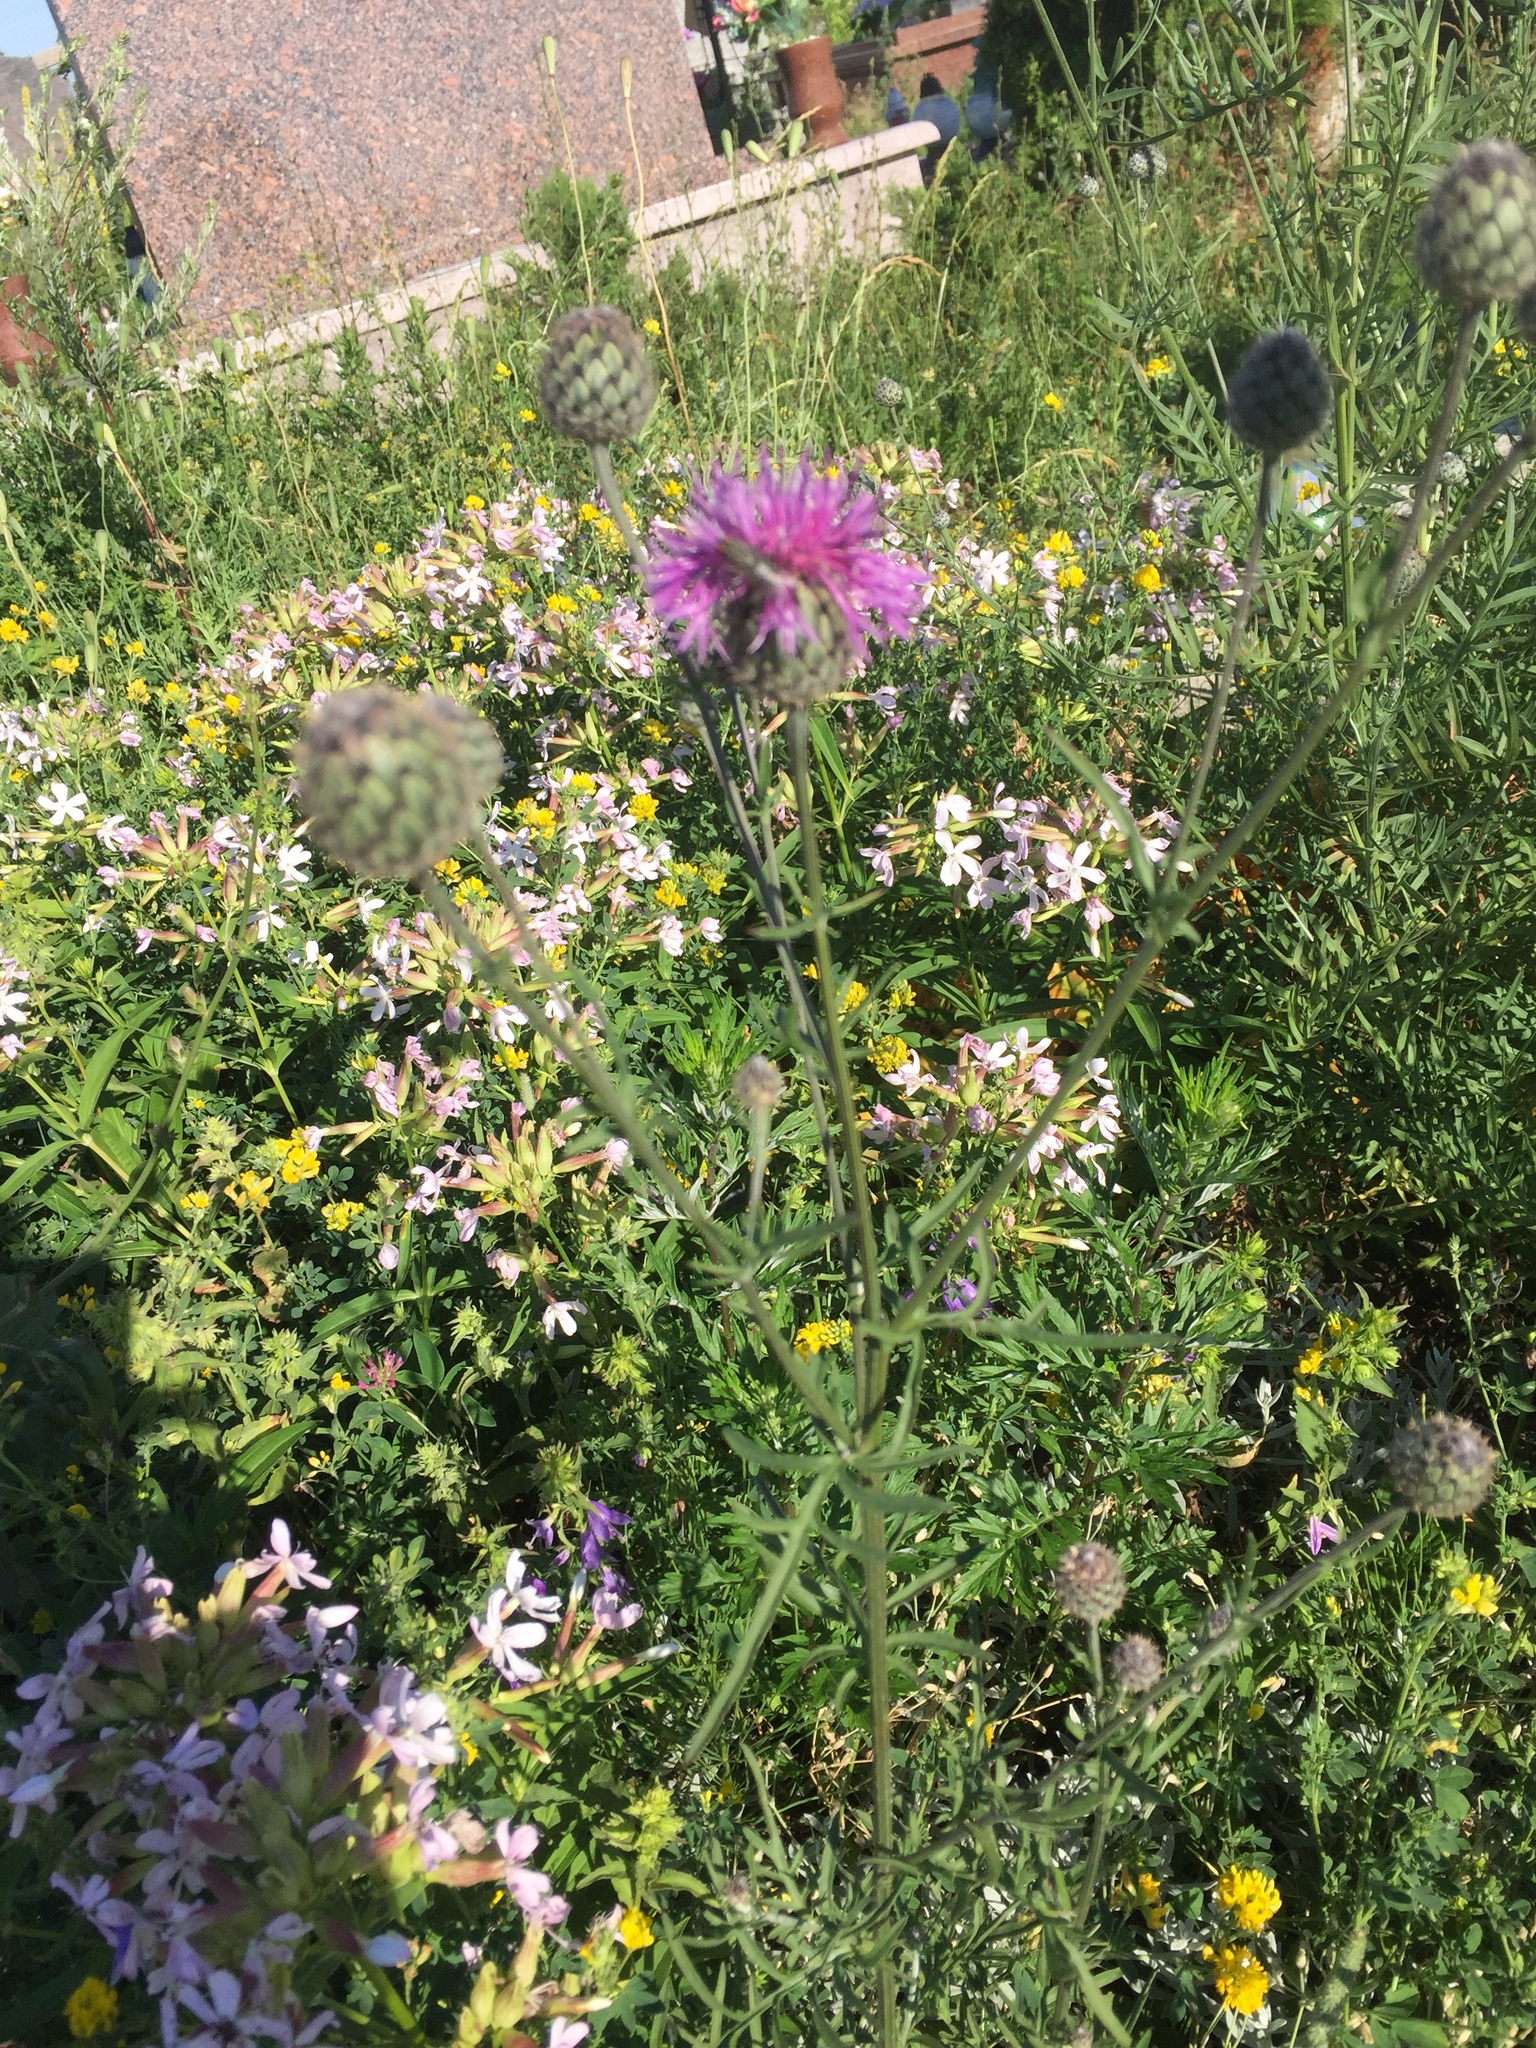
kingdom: Plantae
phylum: Tracheophyta
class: Magnoliopsida
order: Asterales
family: Asteraceae
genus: Centaurea
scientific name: Centaurea scabiosa
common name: Greater knapweed
